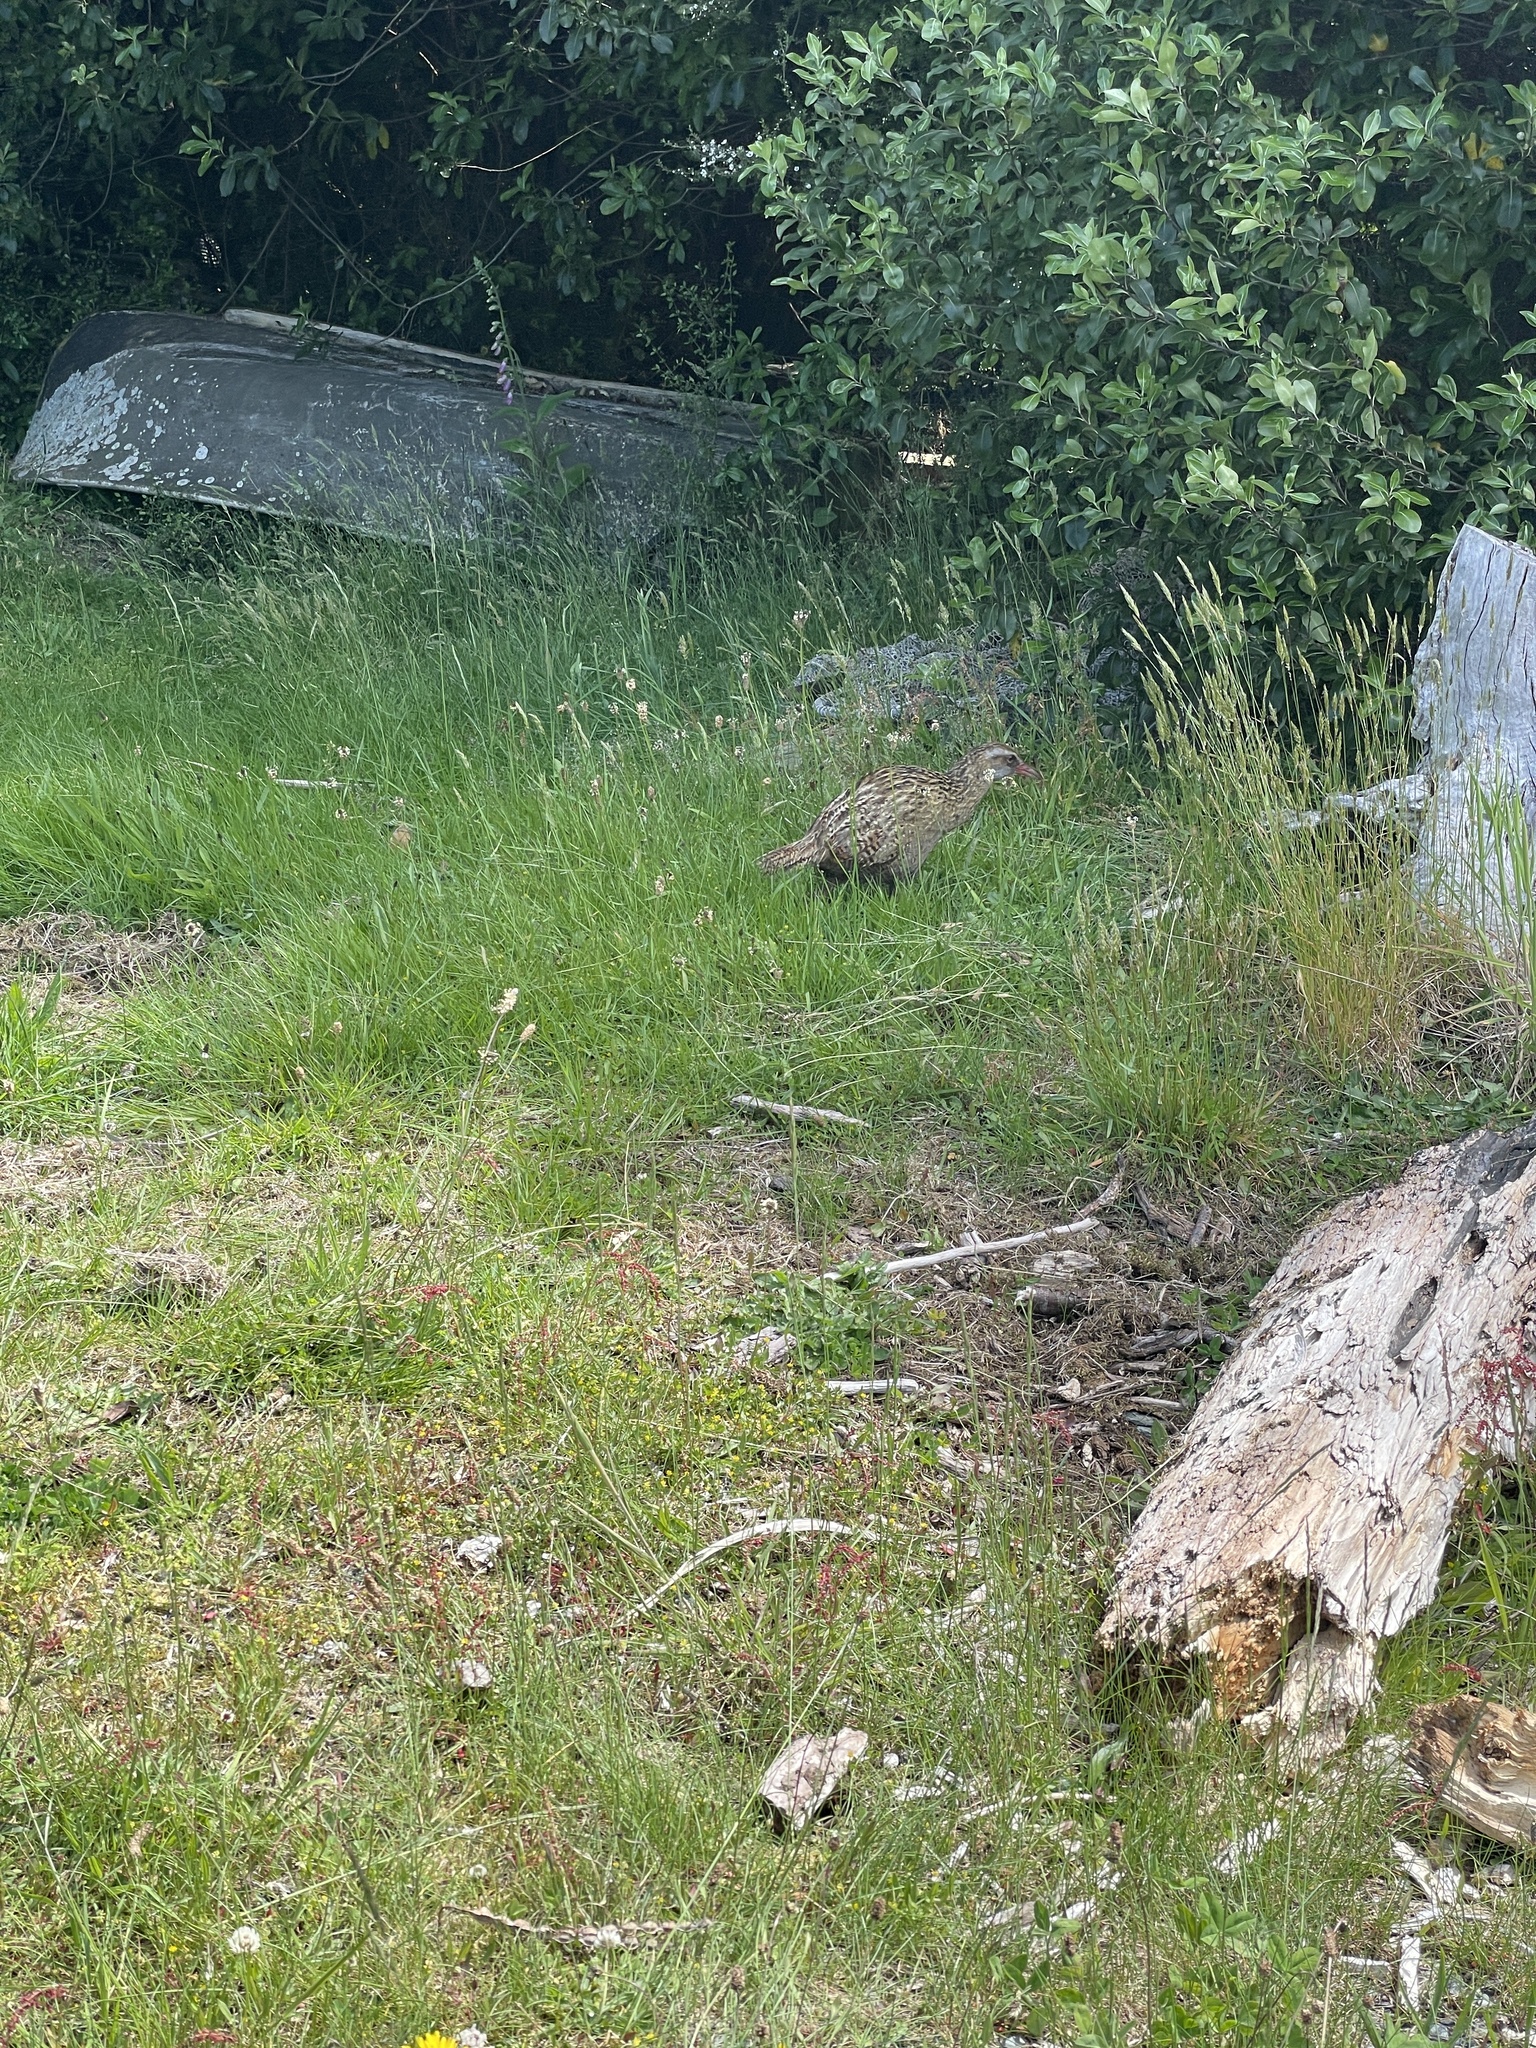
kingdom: Animalia
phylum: Chordata
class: Aves
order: Gruiformes
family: Rallidae
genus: Gallirallus
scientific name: Gallirallus australis
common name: Weka
